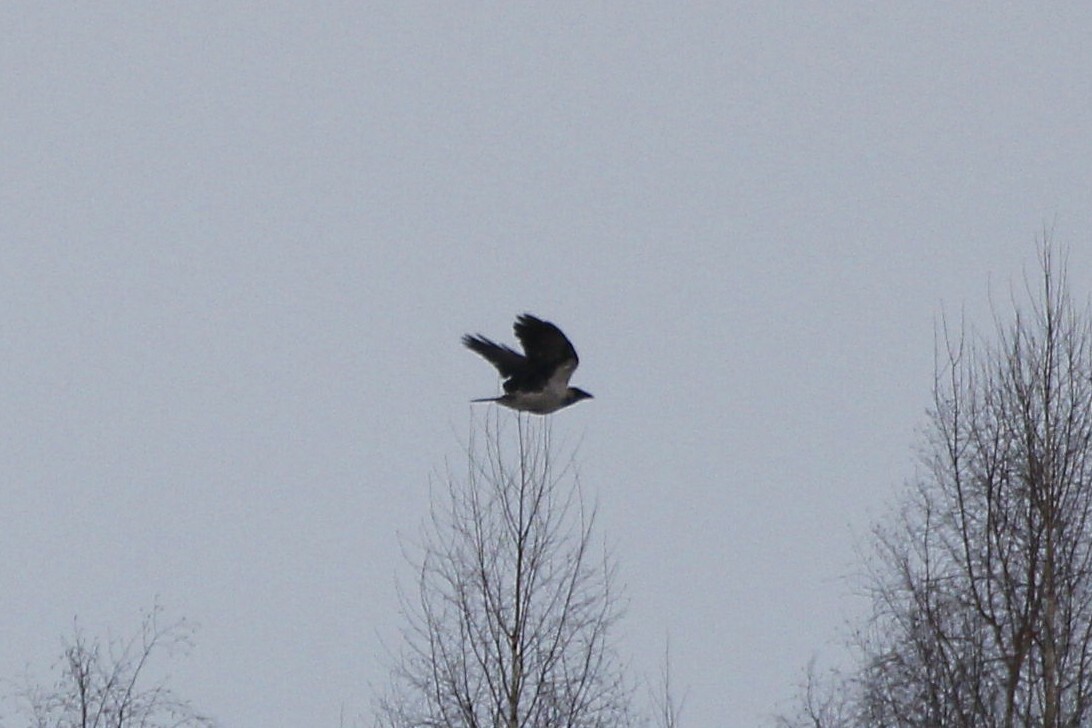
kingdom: Animalia
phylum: Chordata
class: Aves
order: Passeriformes
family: Corvidae
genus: Corvus
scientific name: Corvus cornix
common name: Hooded crow
